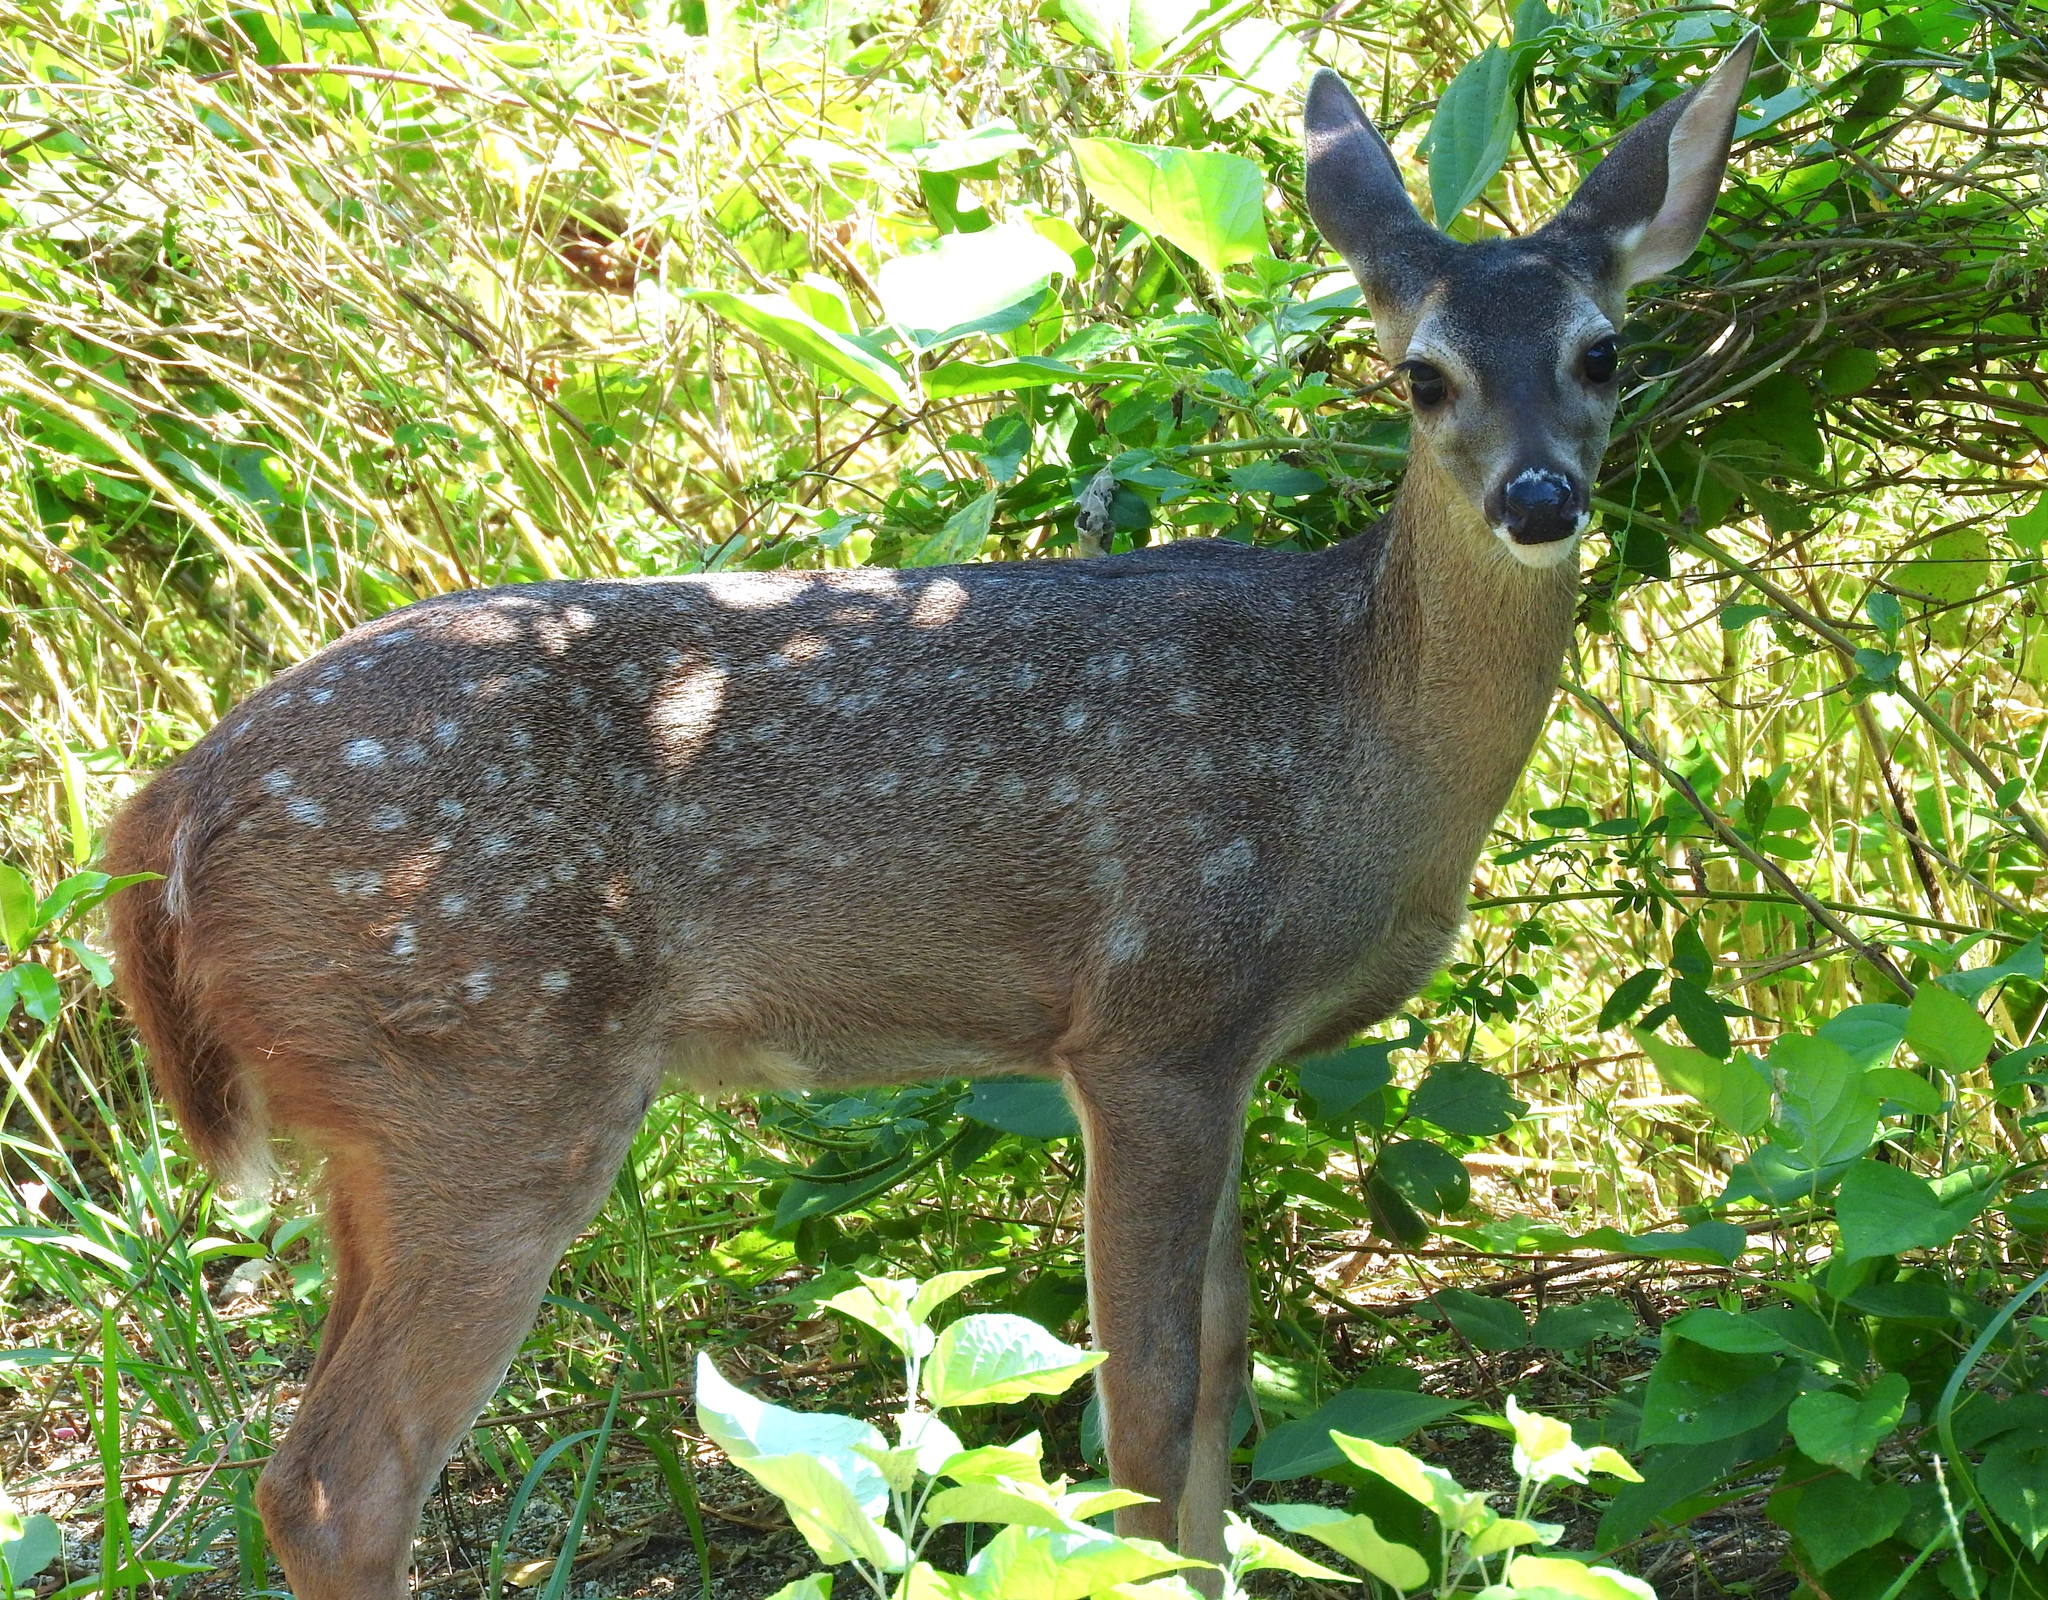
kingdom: Animalia
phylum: Chordata
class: Mammalia
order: Artiodactyla
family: Cervidae
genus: Odocoileus
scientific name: Odocoileus virginianus
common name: White-tailed deer
